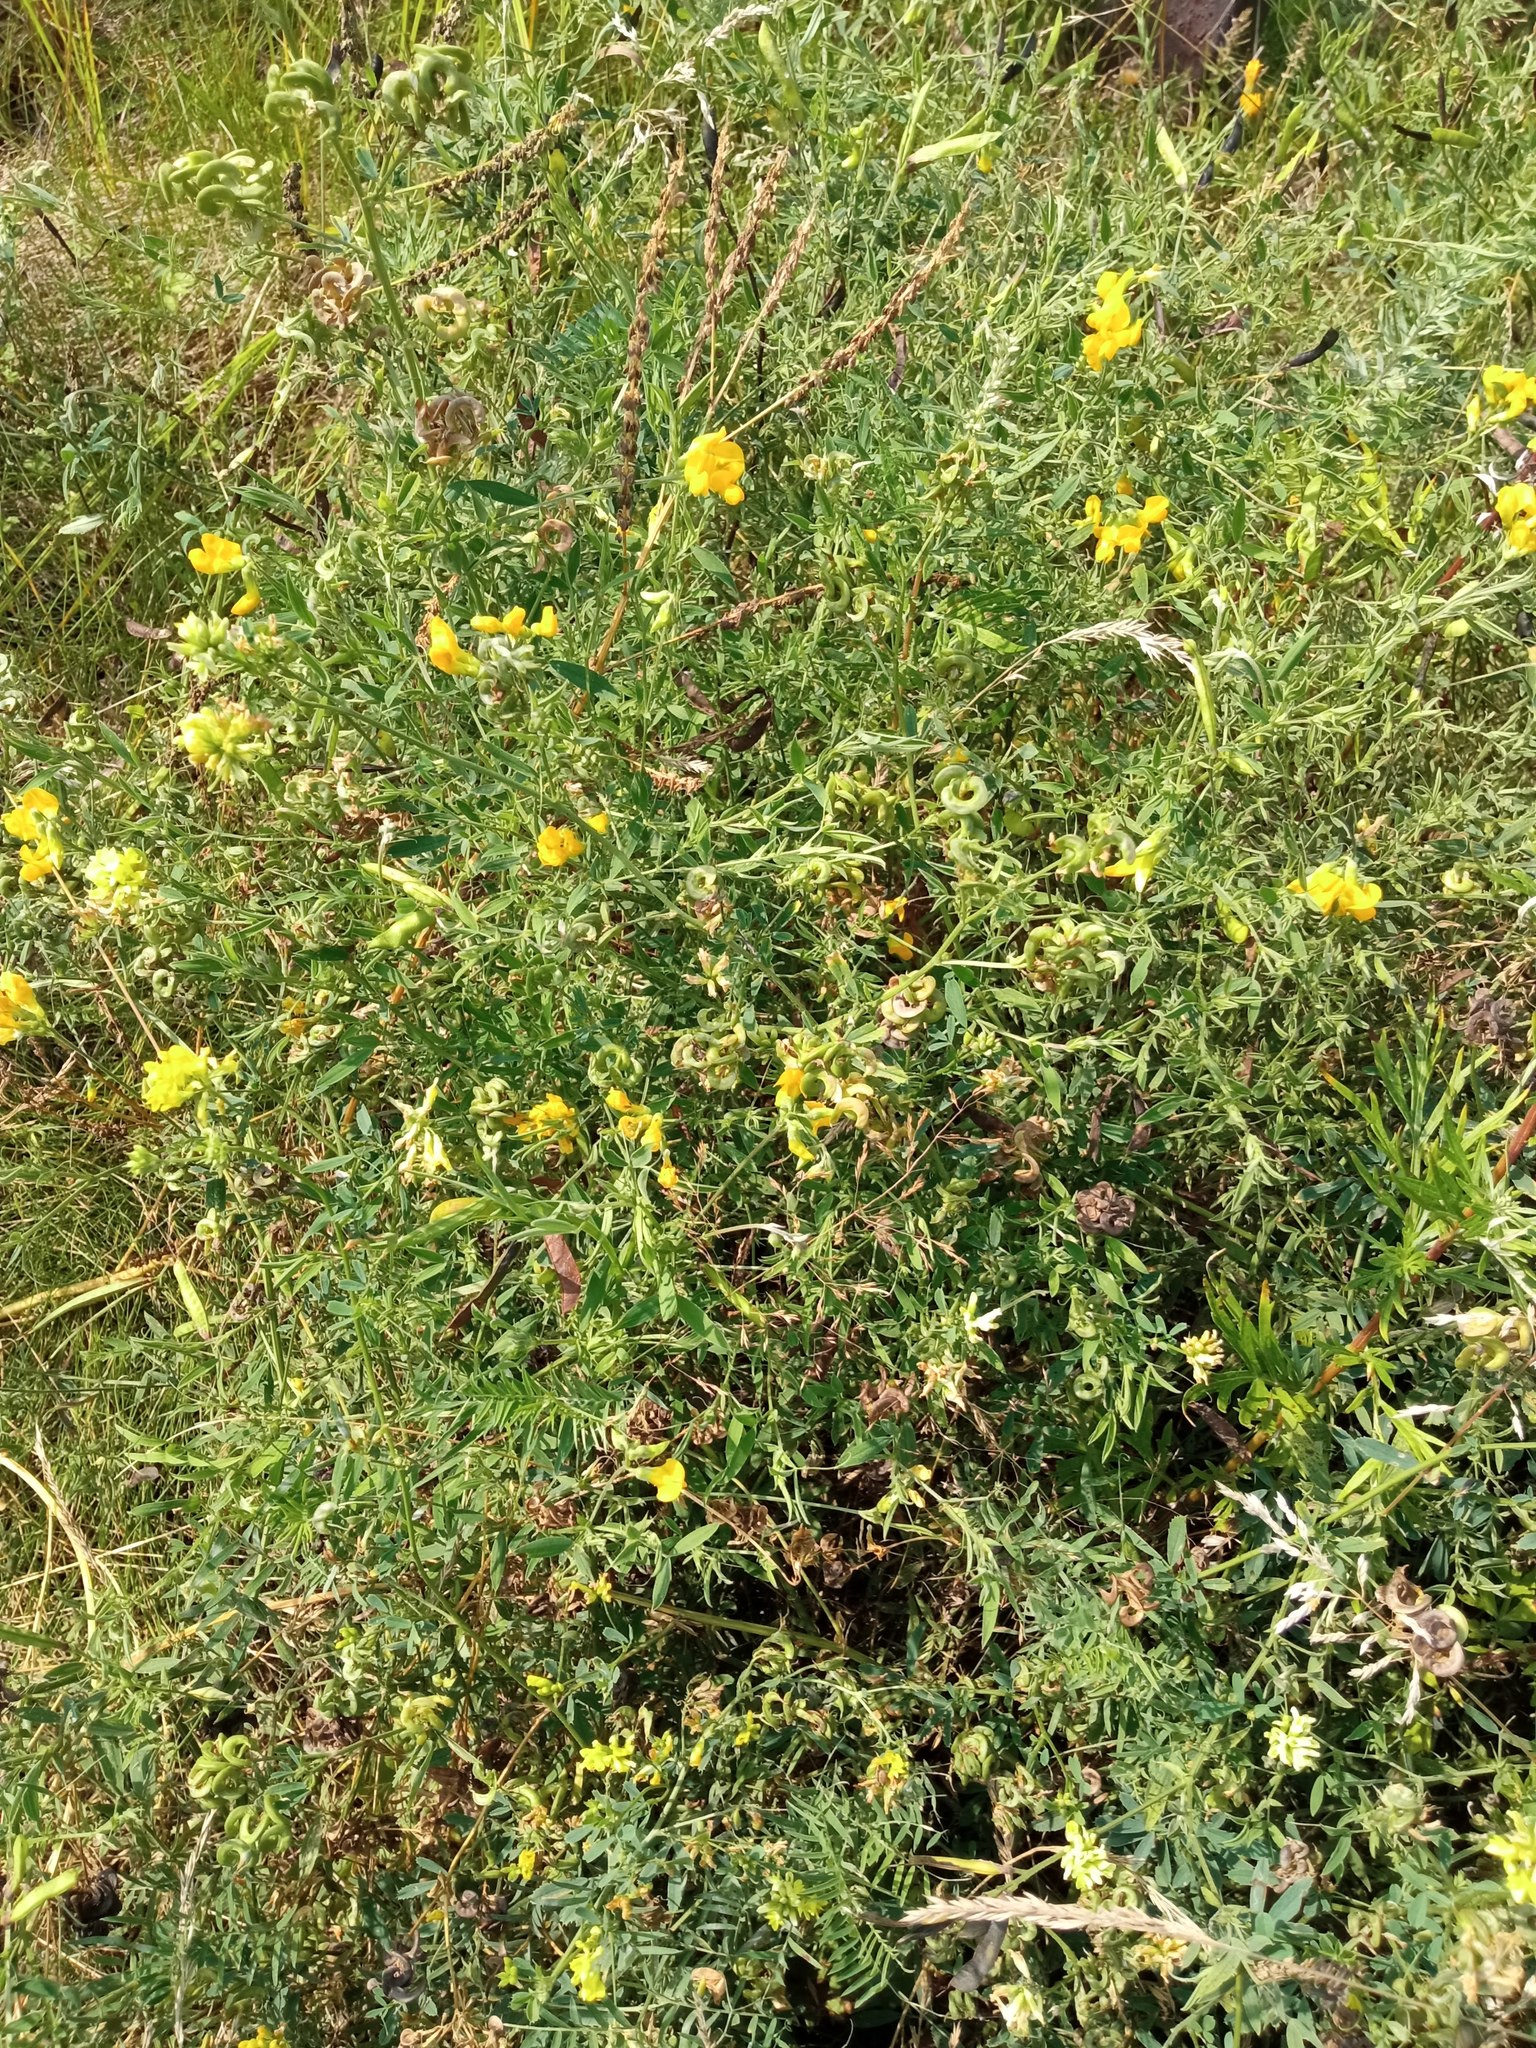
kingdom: Plantae
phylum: Tracheophyta
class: Magnoliopsida
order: Fabales
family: Fabaceae
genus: Medicago
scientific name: Medicago falcata
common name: Sickle medick
